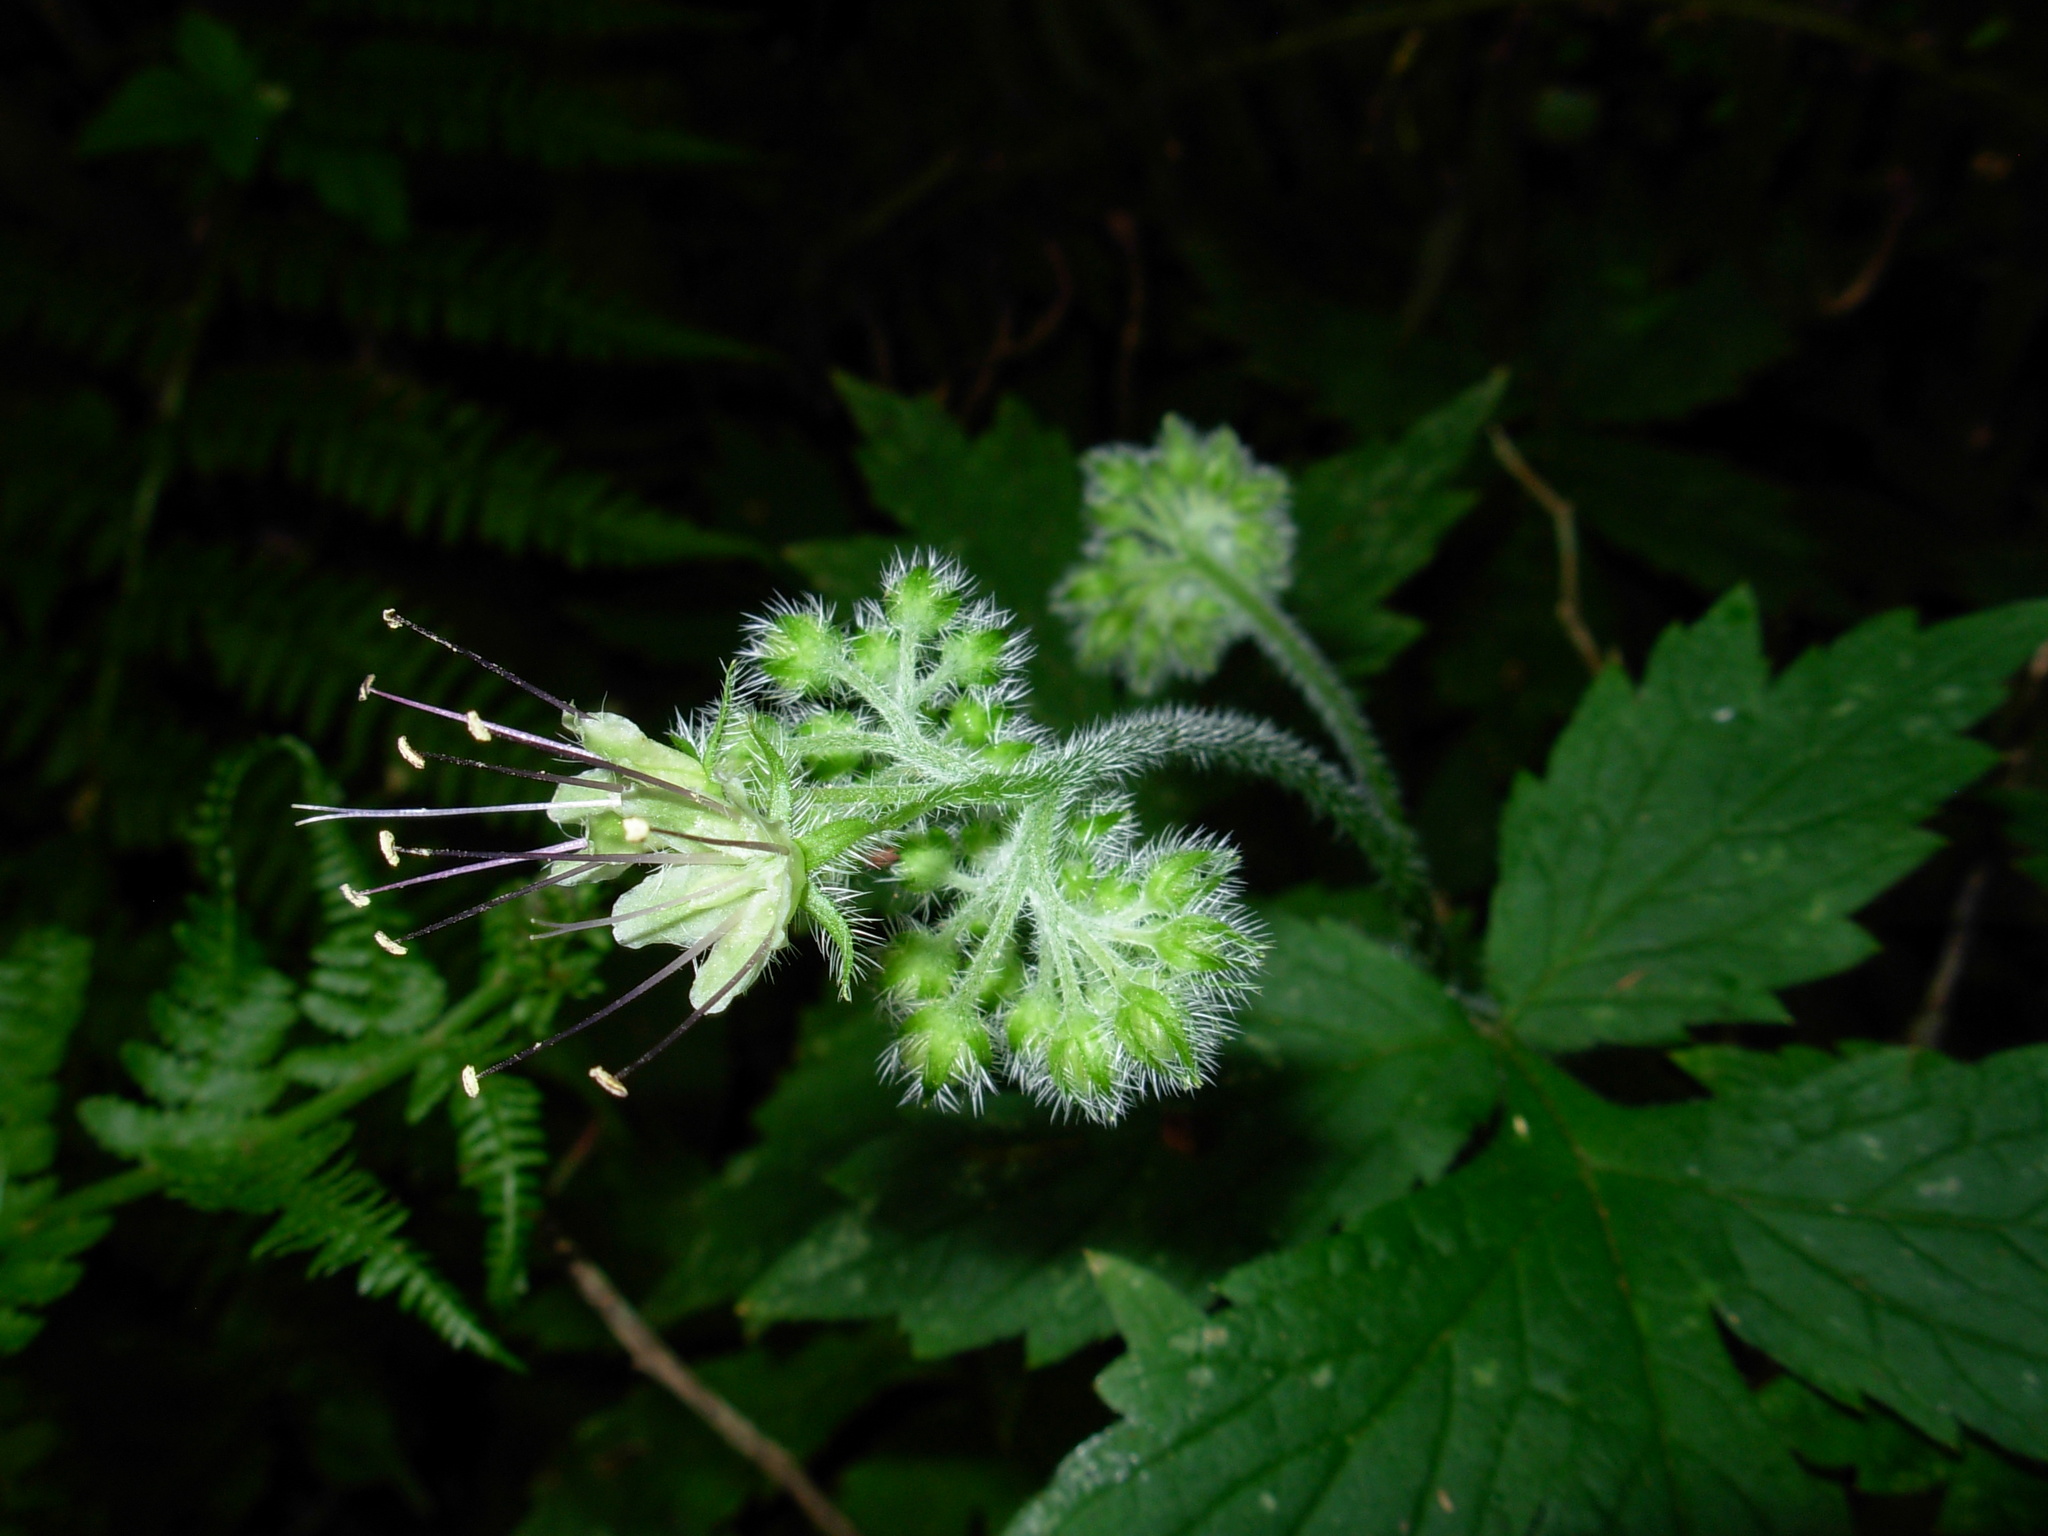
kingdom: Plantae
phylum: Tracheophyta
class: Magnoliopsida
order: Boraginales
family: Hydrophyllaceae
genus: Hydrophyllum
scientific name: Hydrophyllum tenuipes
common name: Pacific waterleaf
